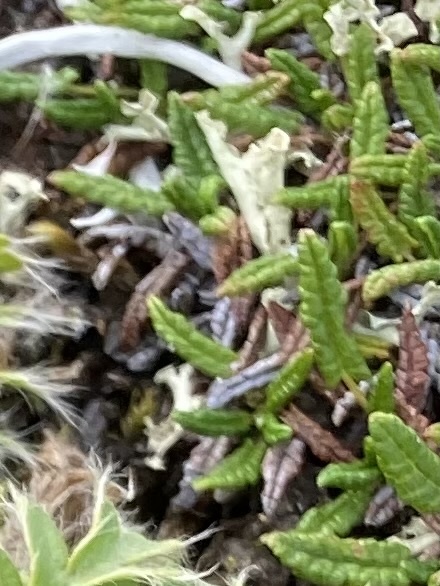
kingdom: Plantae
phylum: Tracheophyta
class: Magnoliopsida
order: Rosales
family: Rosaceae
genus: Dryas
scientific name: Dryas octopetala
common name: Eight-petal mountain-avens
